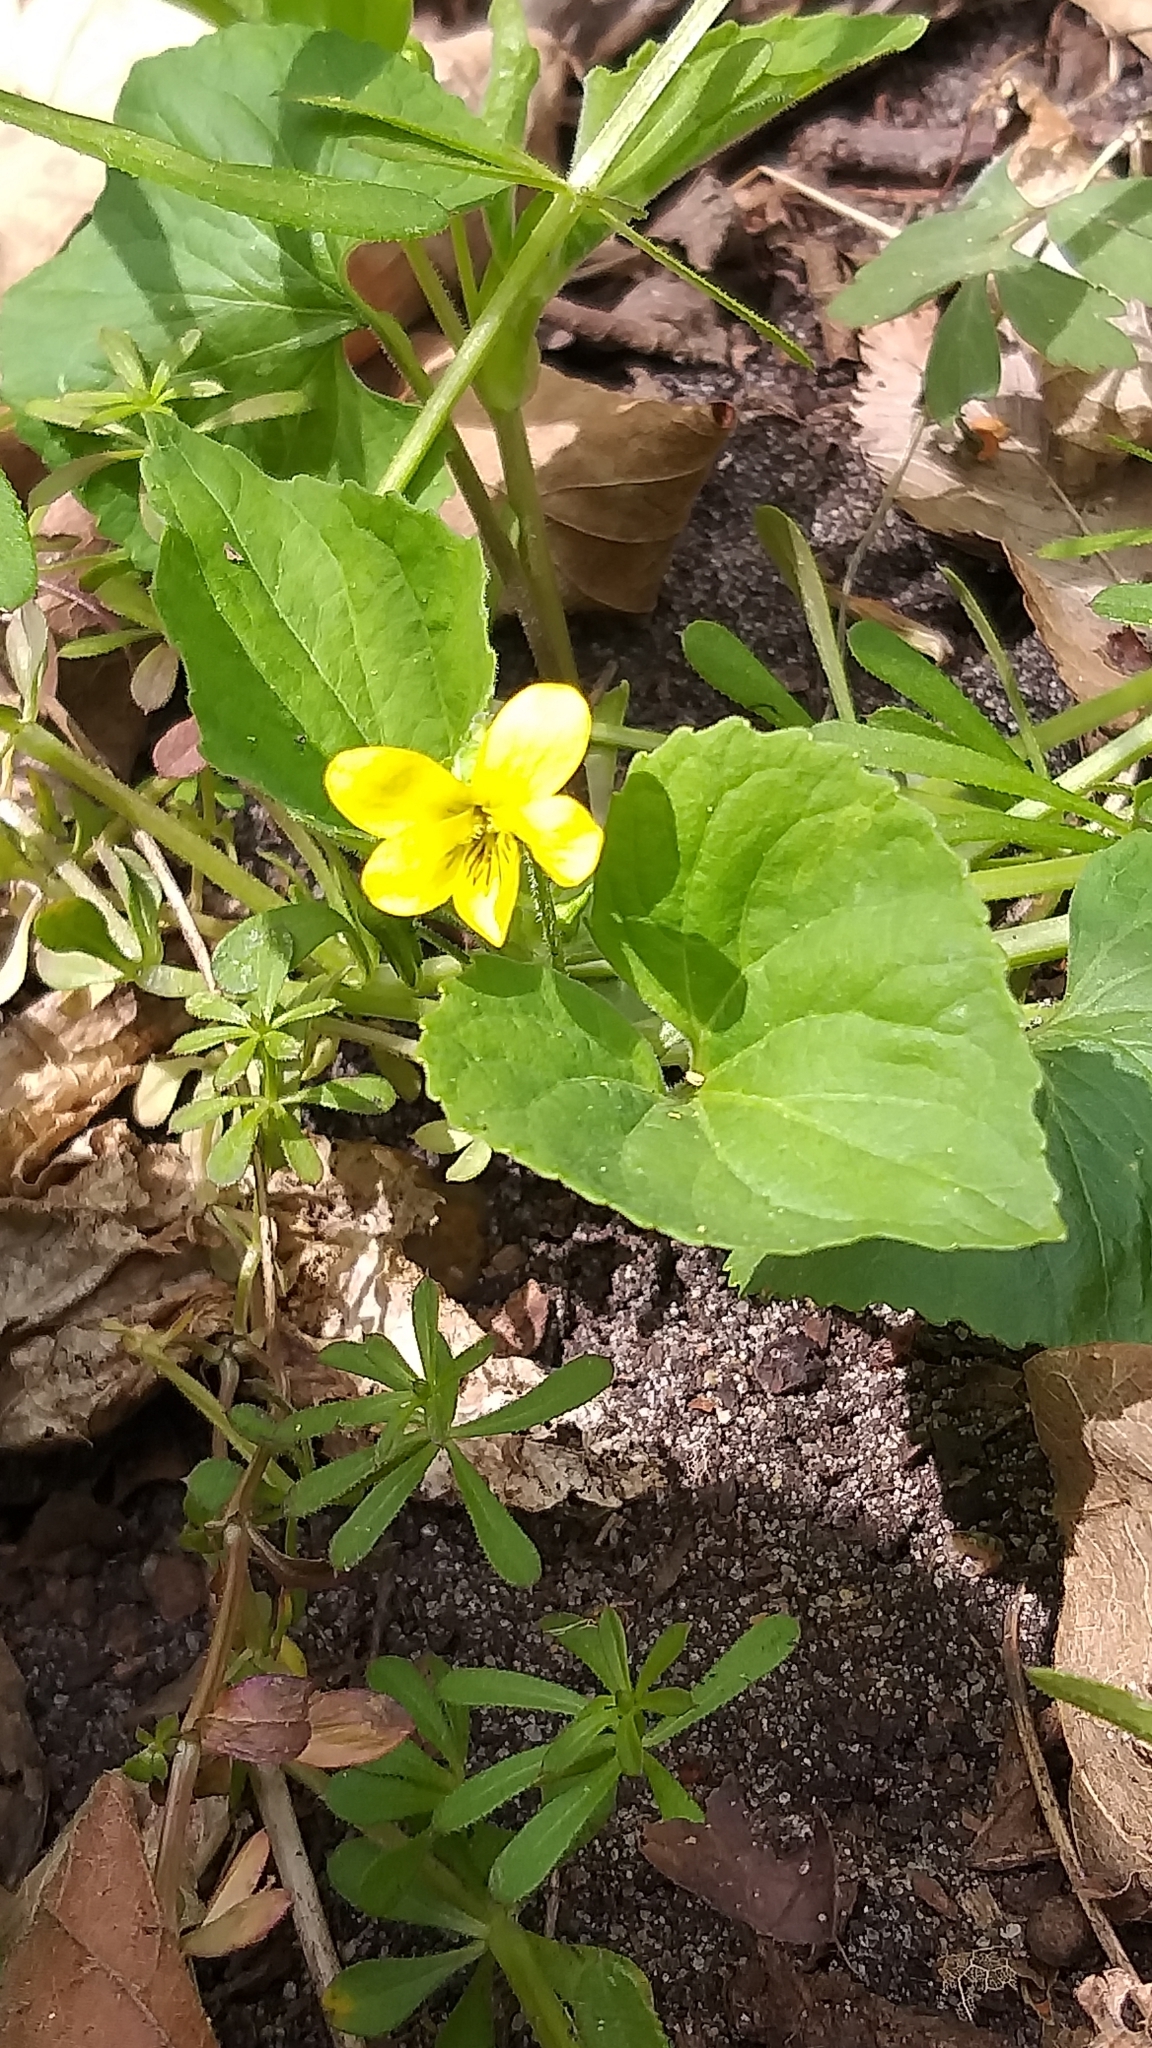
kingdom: Plantae
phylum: Tracheophyta
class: Magnoliopsida
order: Malpighiales
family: Violaceae
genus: Viola
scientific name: Viola eriocarpa
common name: Smooth yellow violet
